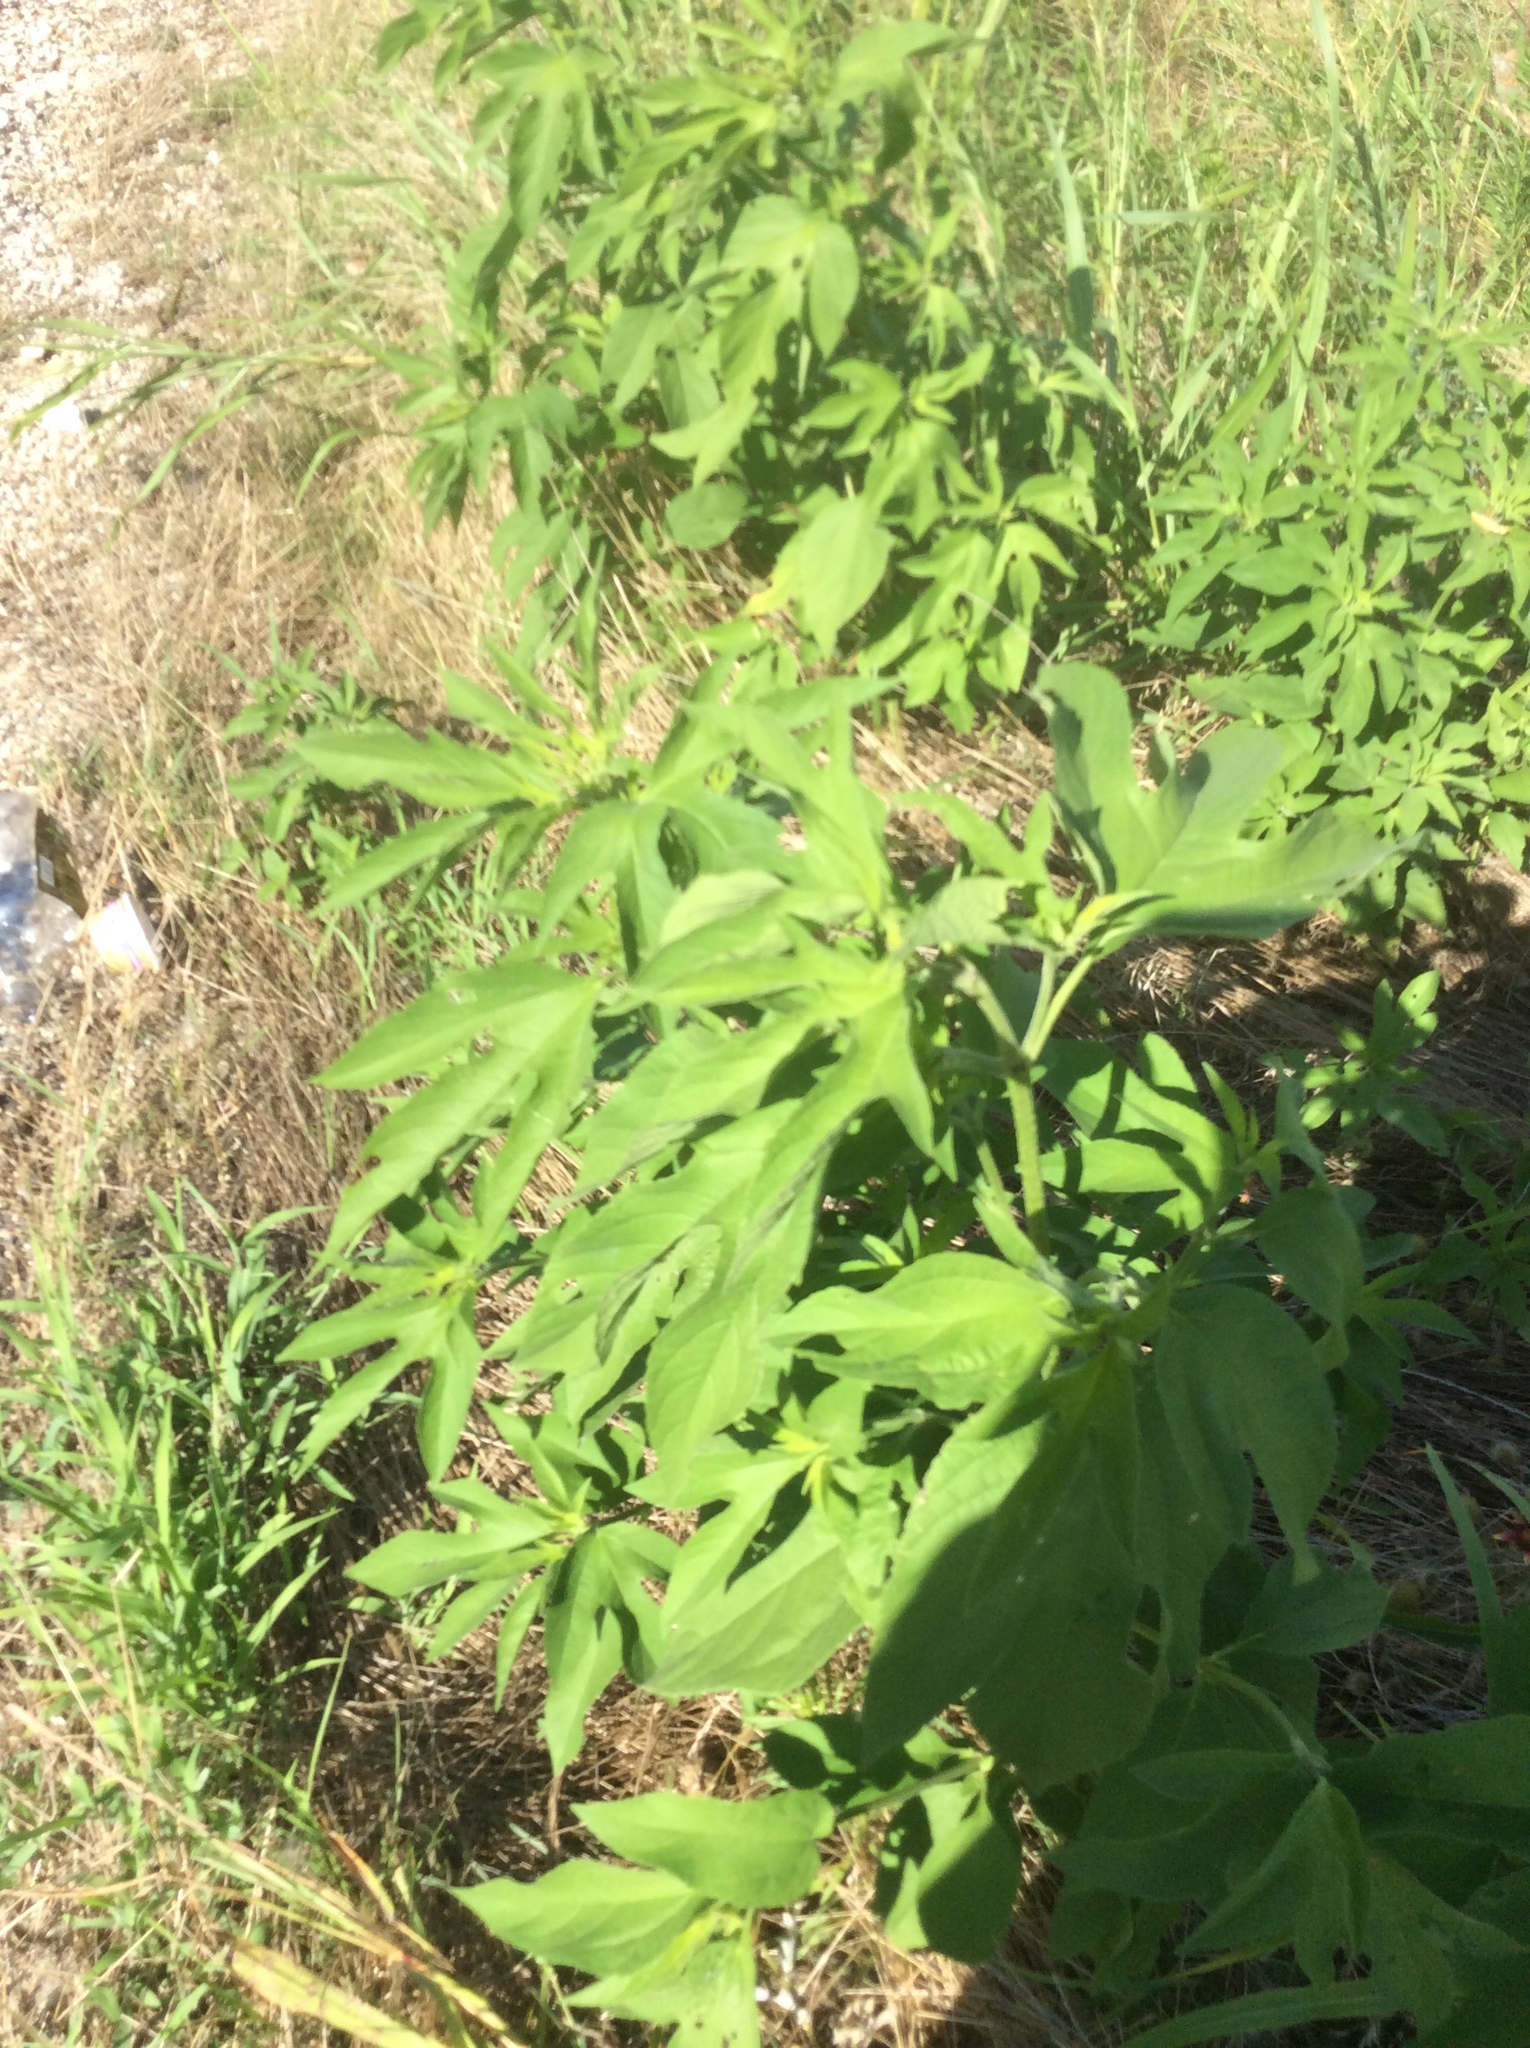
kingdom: Plantae
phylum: Tracheophyta
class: Magnoliopsida
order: Asterales
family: Asteraceae
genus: Ambrosia
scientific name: Ambrosia trifida
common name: Giant ragweed
